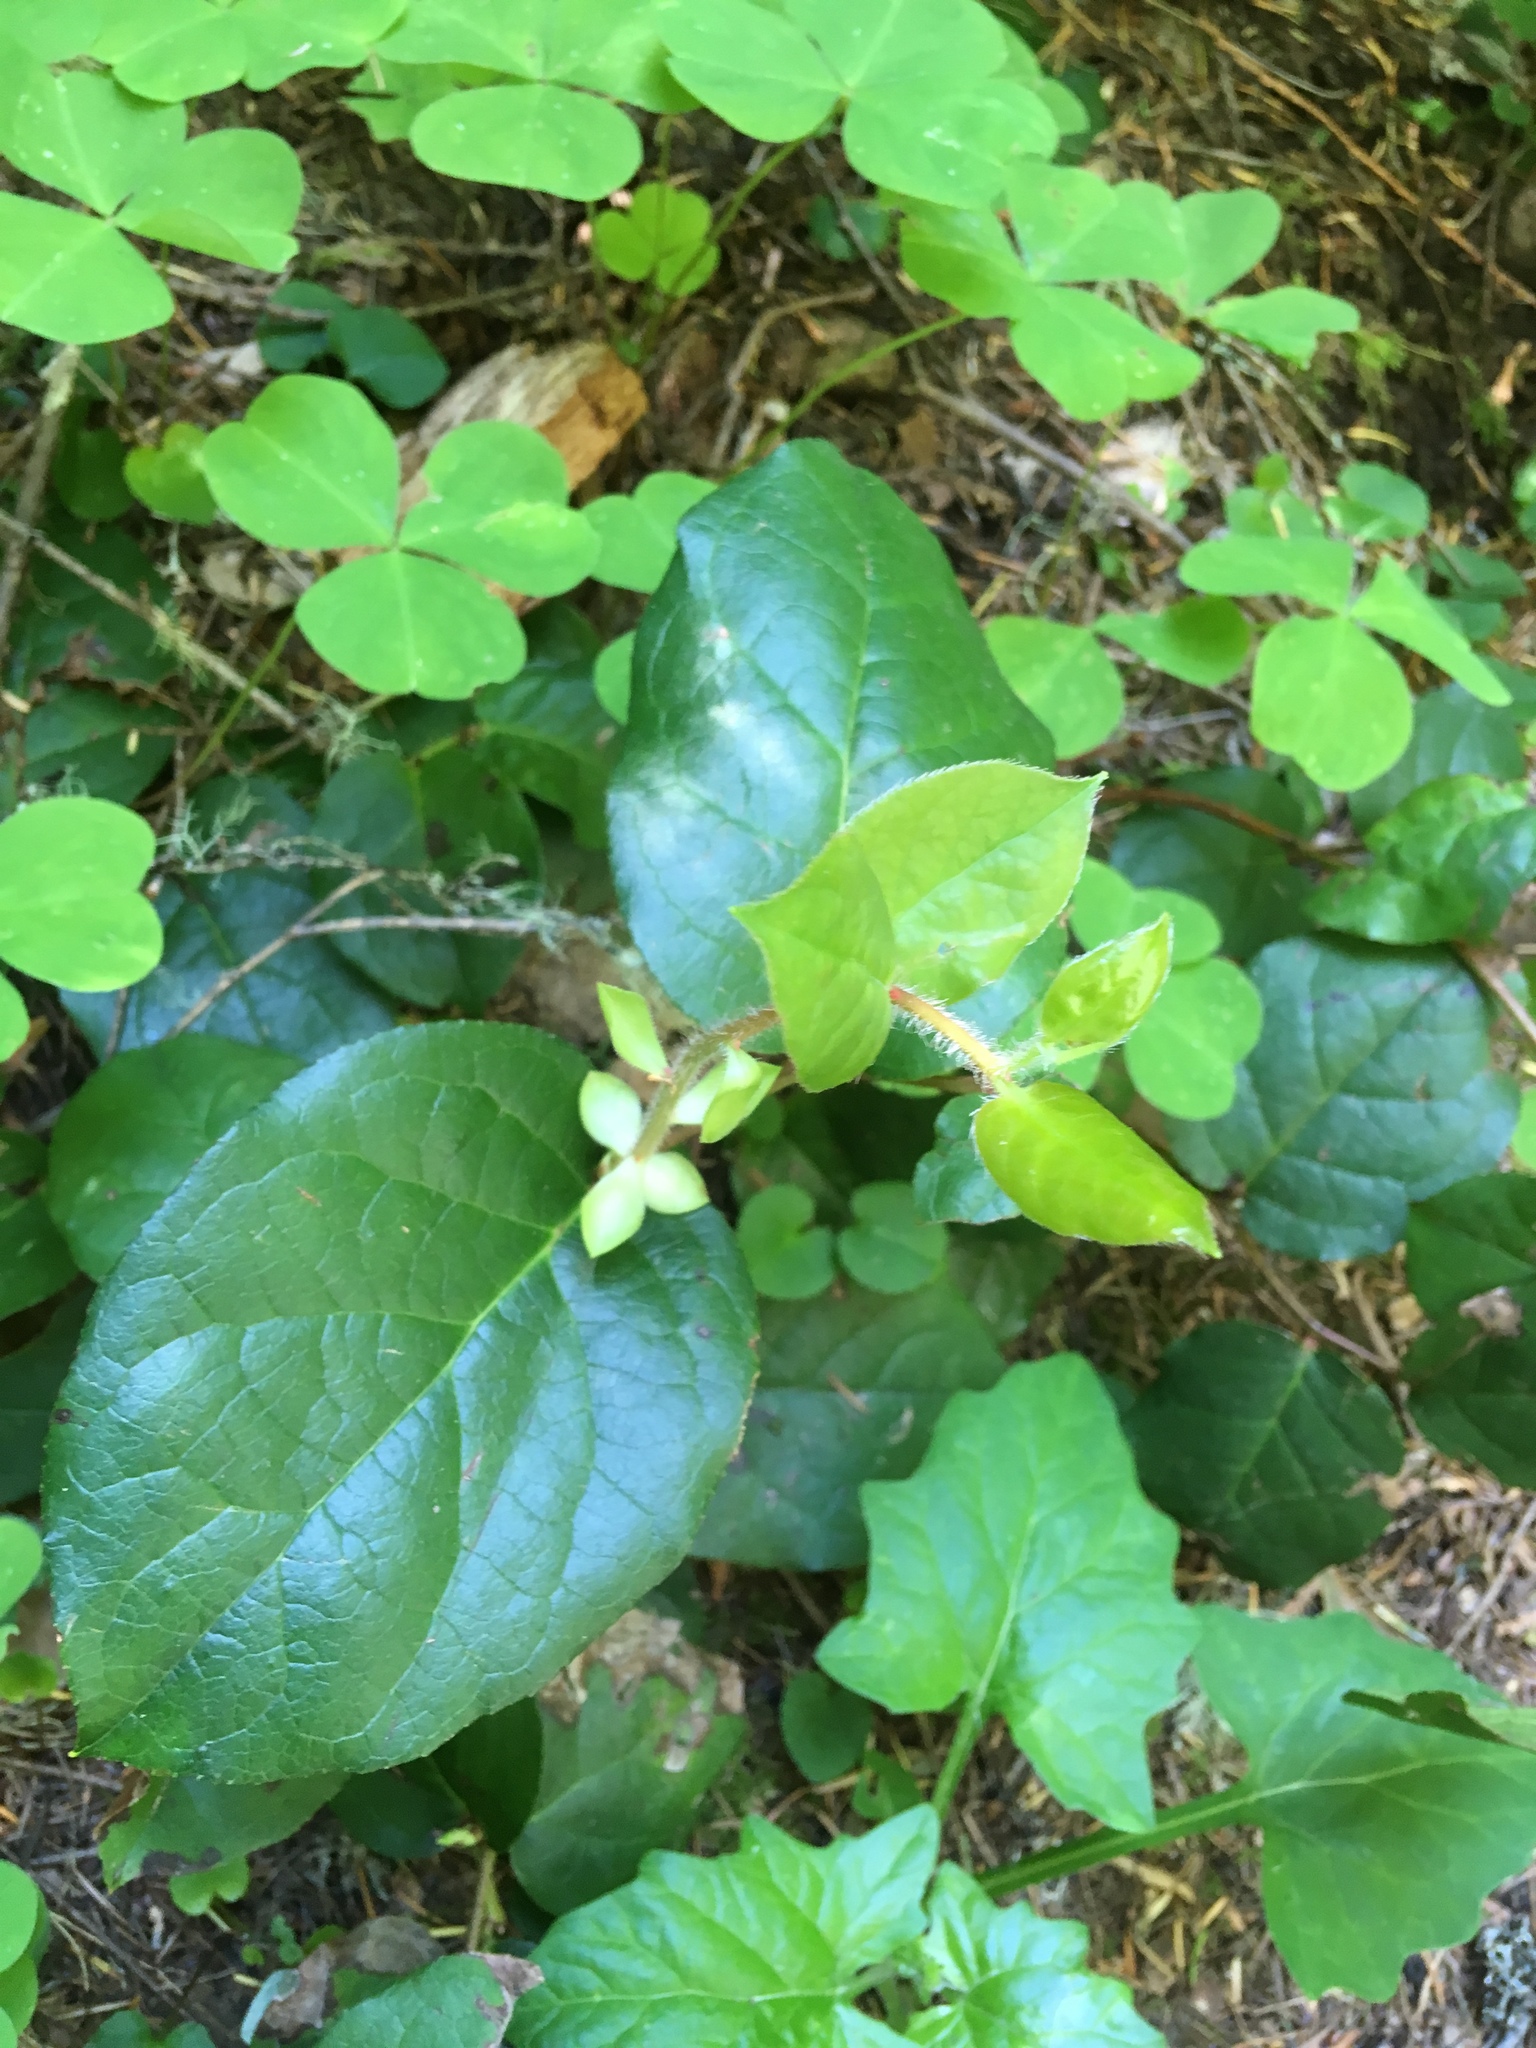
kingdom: Plantae
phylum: Tracheophyta
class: Magnoliopsida
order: Ericales
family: Ericaceae
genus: Gaultheria
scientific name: Gaultheria shallon
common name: Shallon
